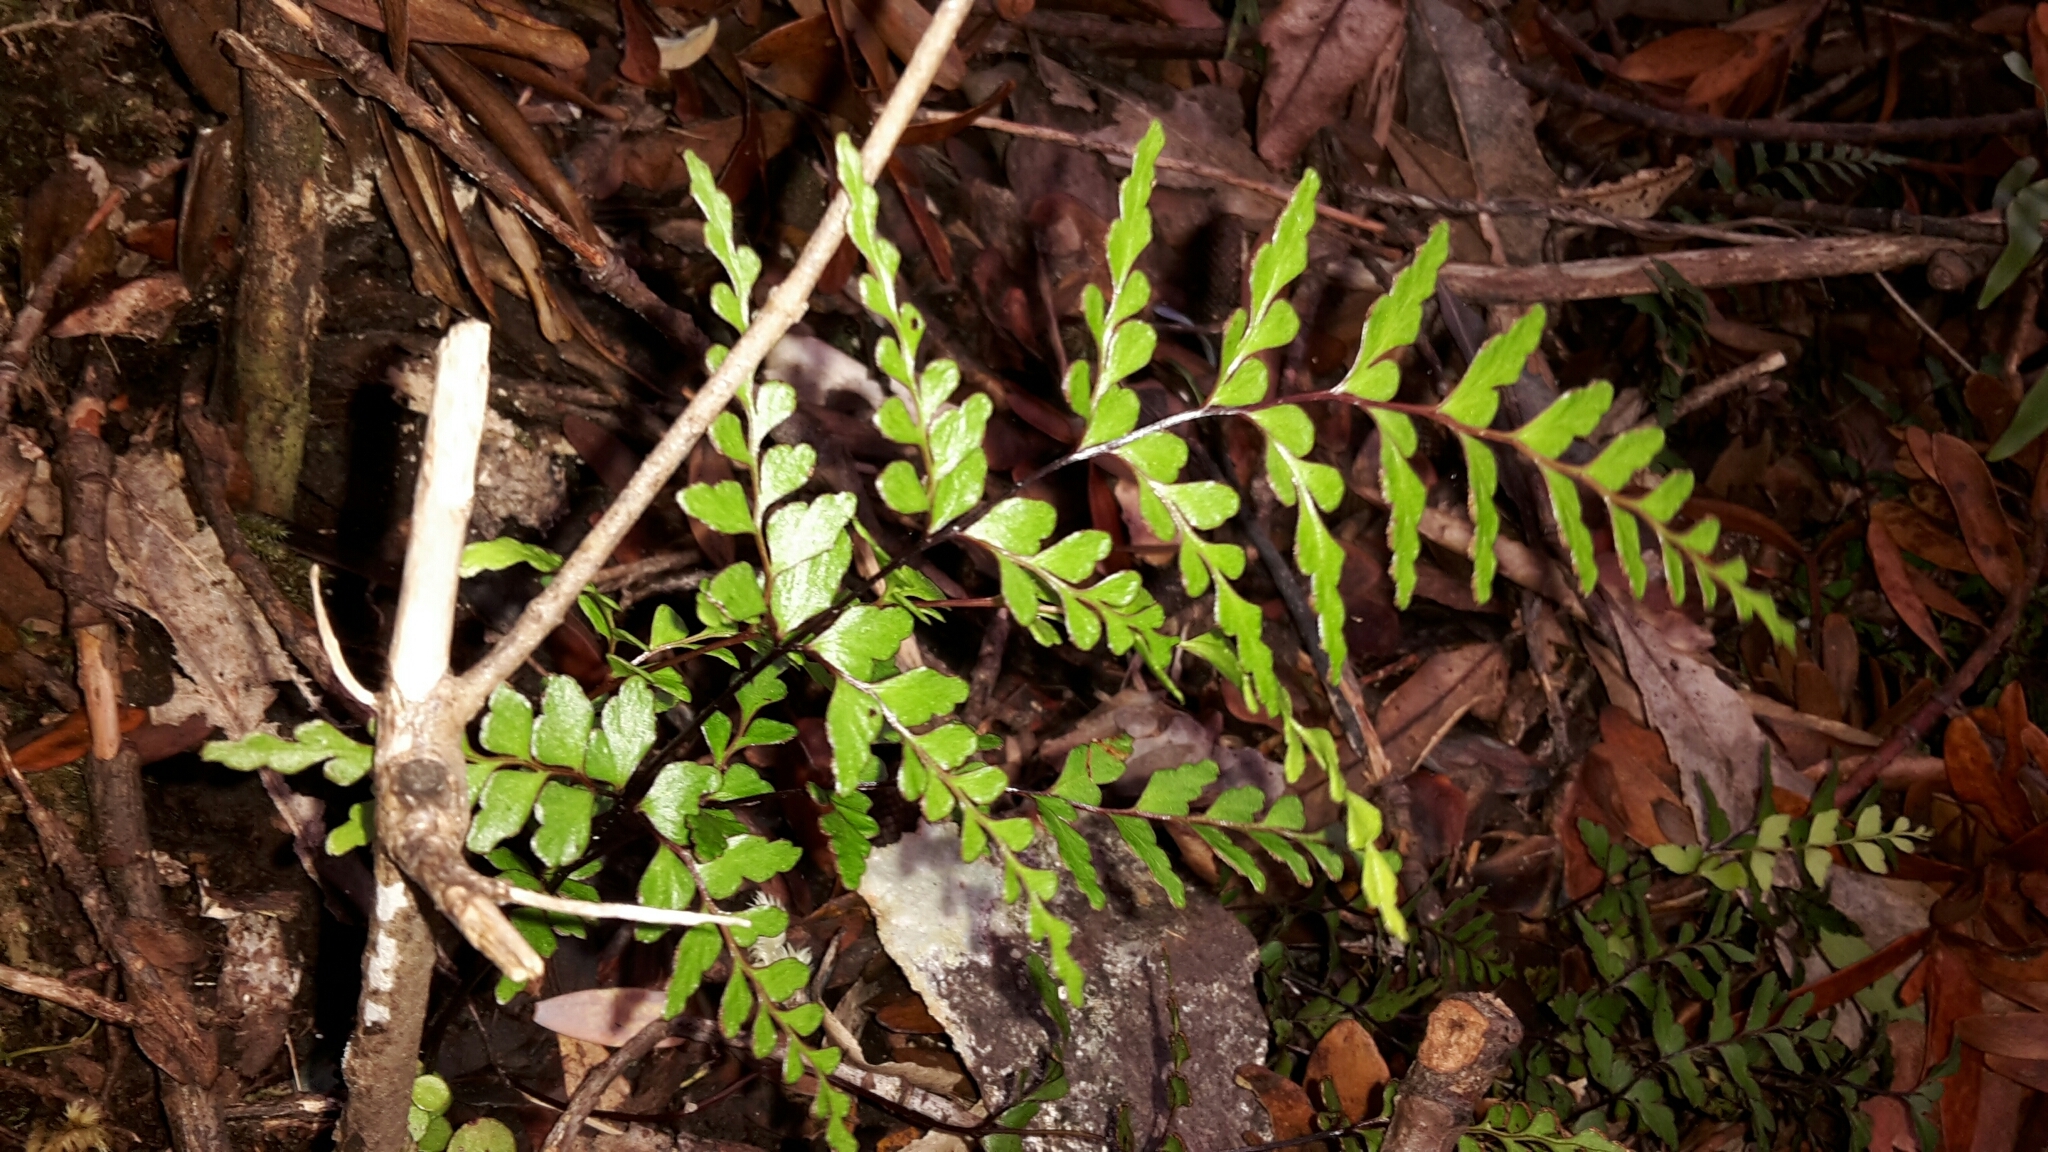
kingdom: Plantae
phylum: Tracheophyta
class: Polypodiopsida
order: Polypodiales
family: Lindsaeaceae
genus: Lindsaea
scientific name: Lindsaea trichomanoides
